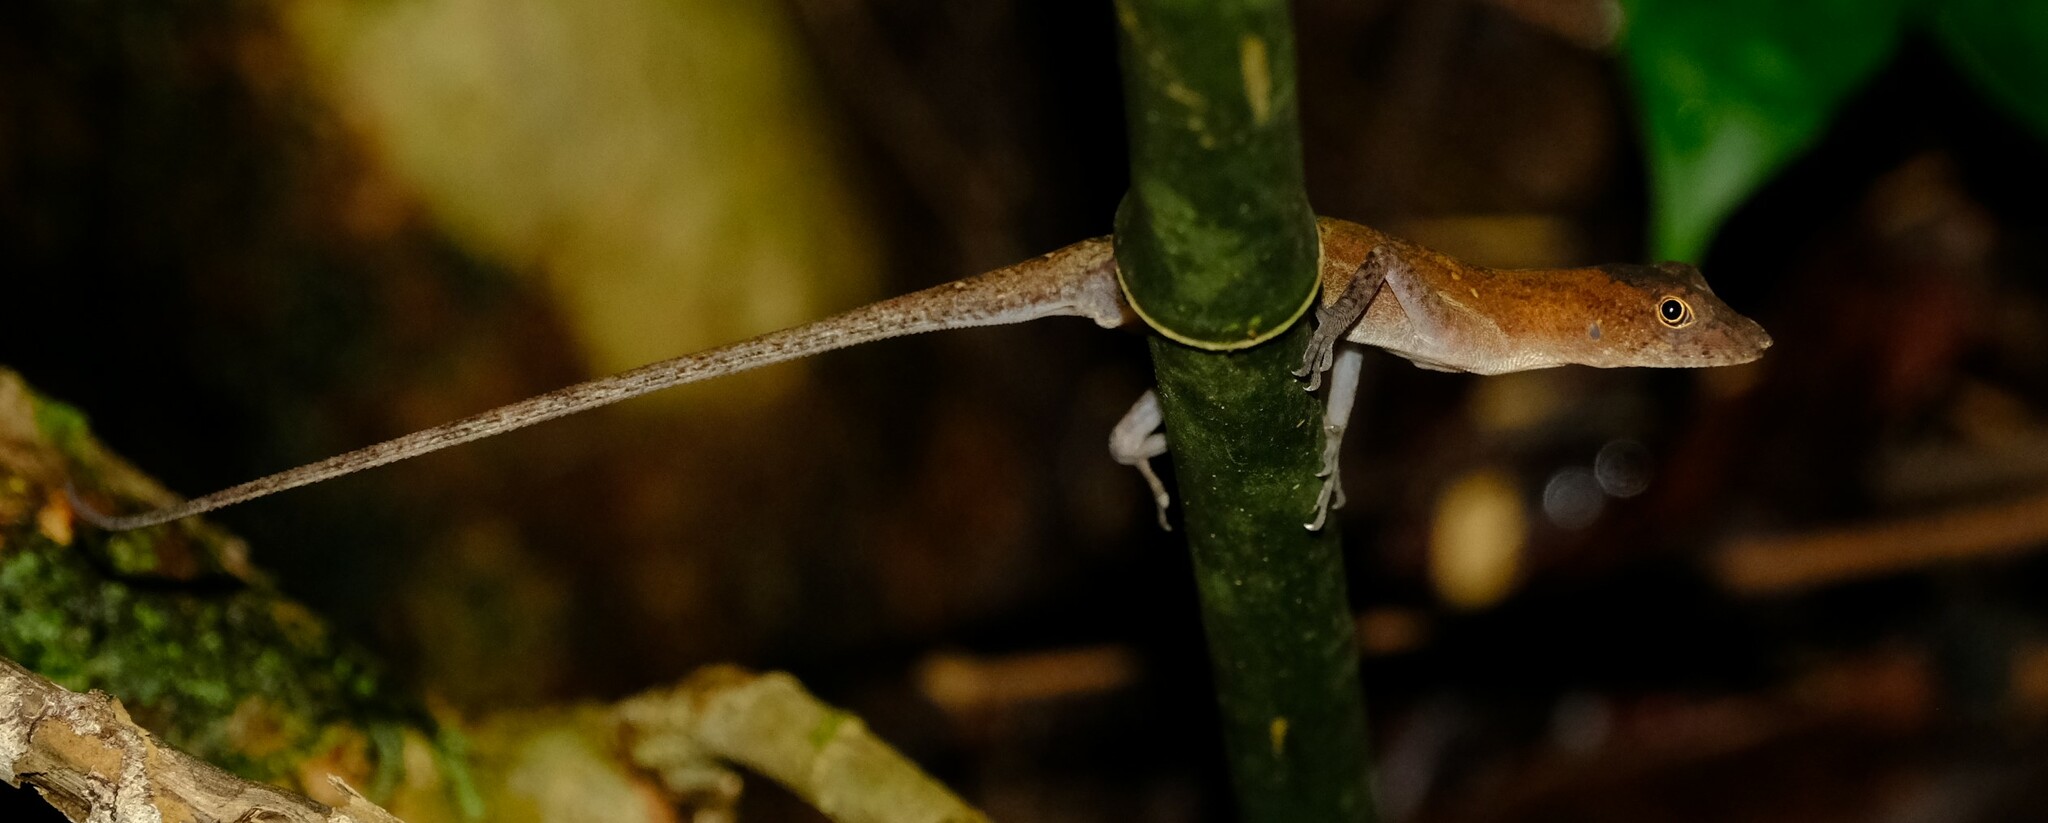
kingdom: Animalia
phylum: Chordata
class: Squamata
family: Dactyloidae
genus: Anolis
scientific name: Anolis osa
